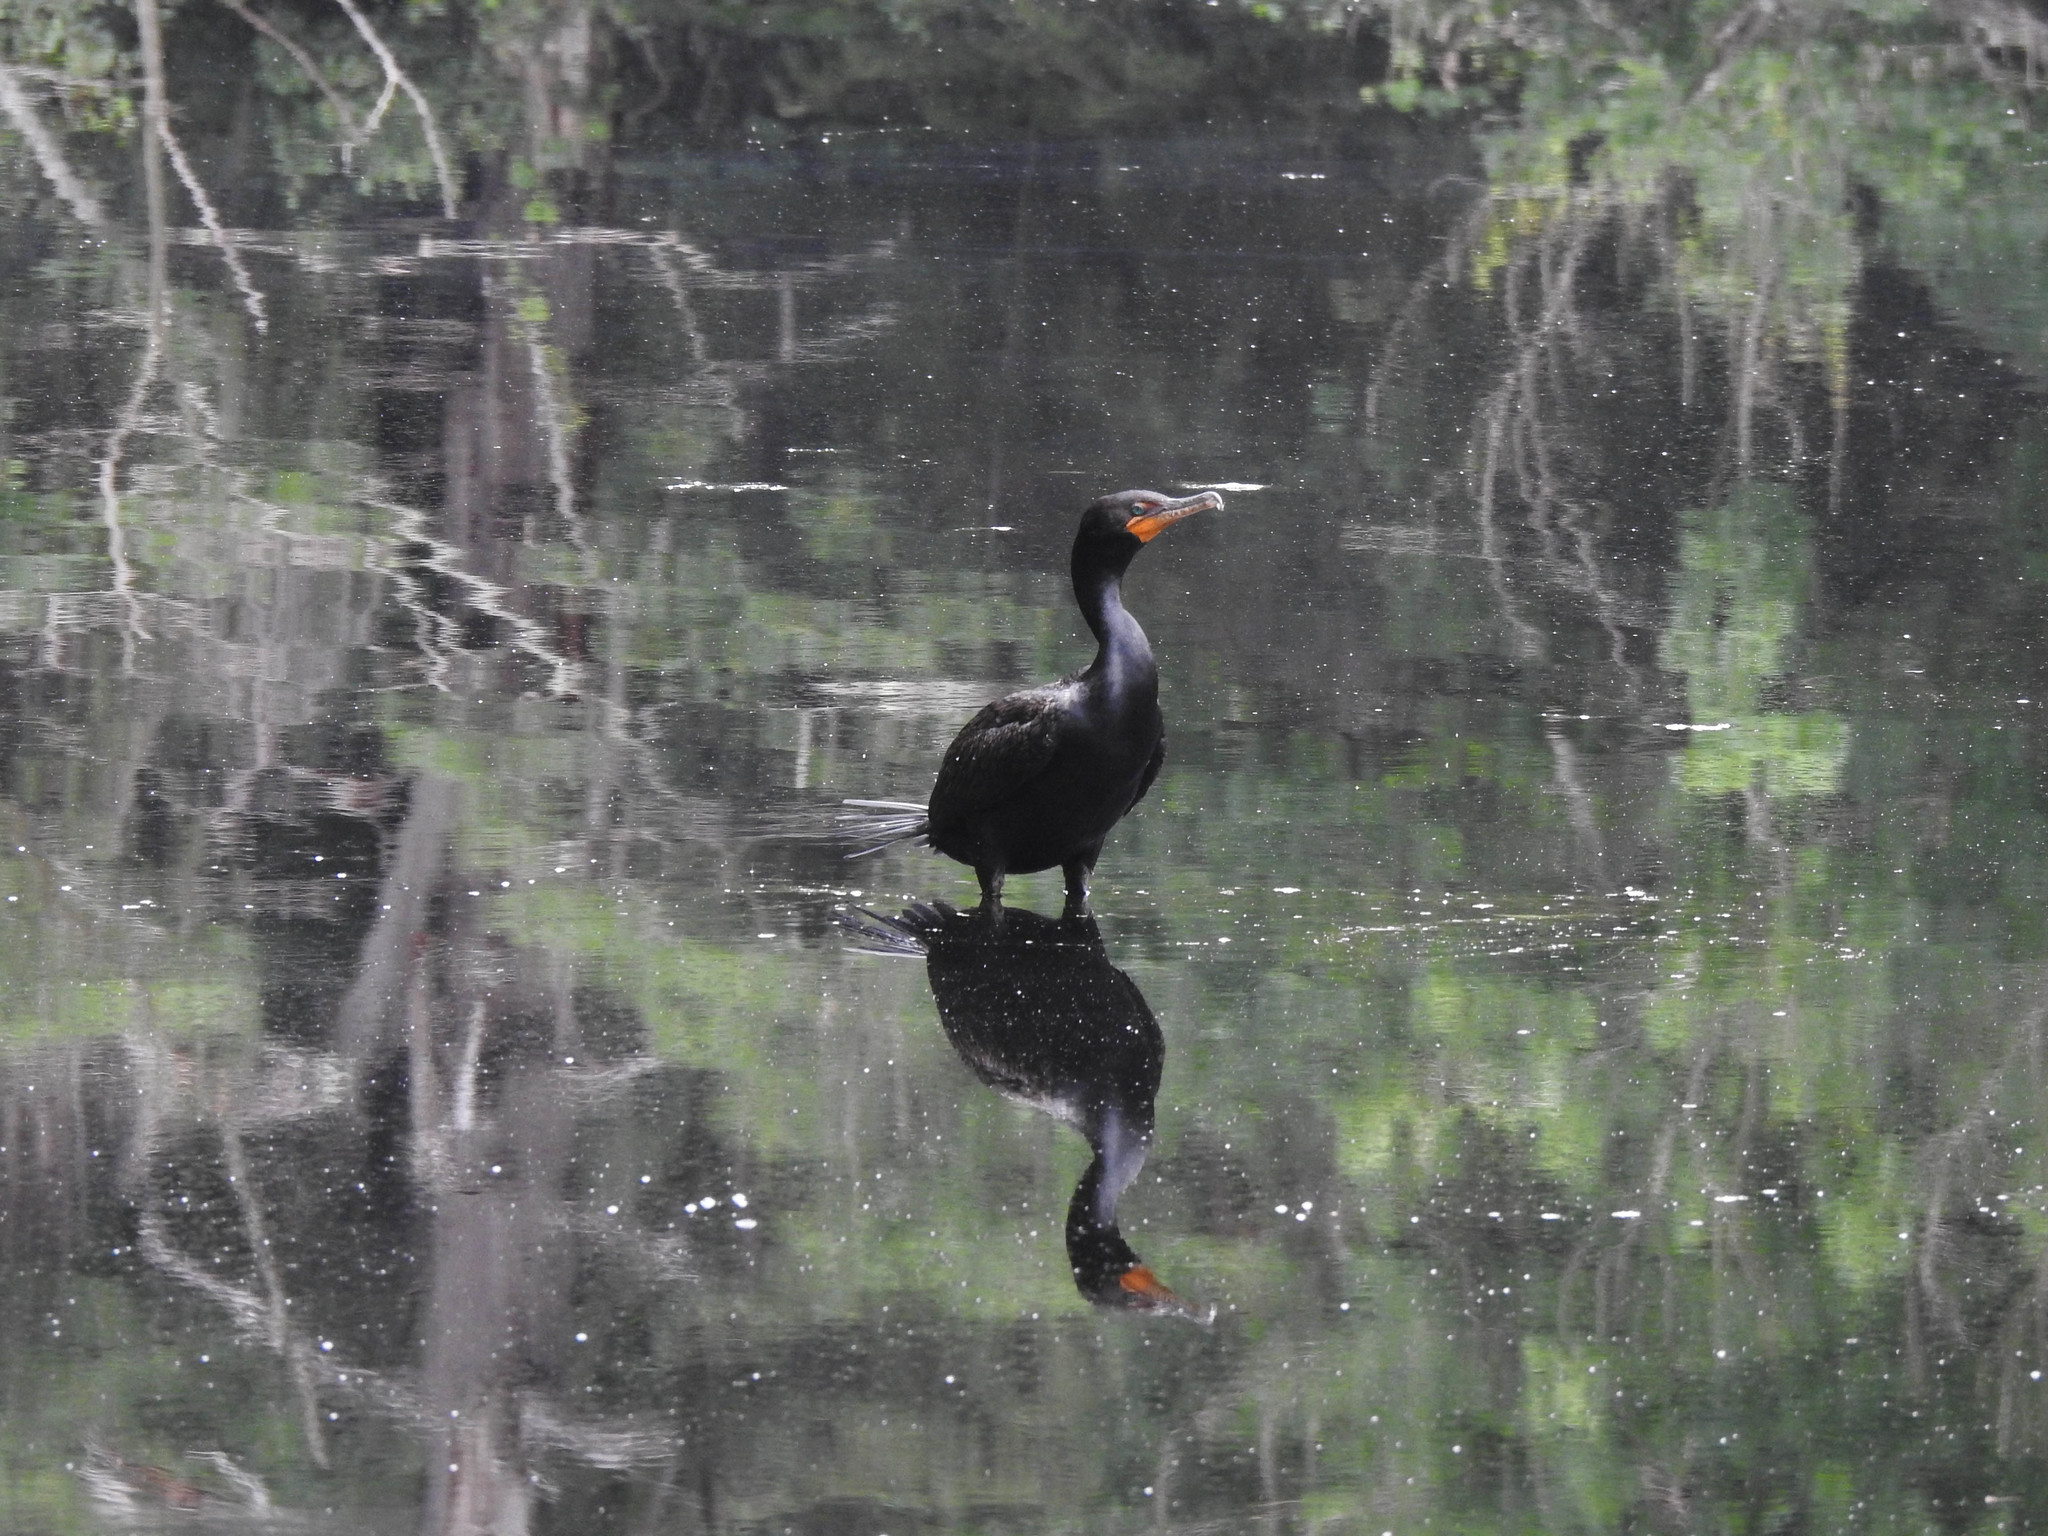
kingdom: Animalia
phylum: Chordata
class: Aves
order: Suliformes
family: Phalacrocoracidae
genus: Phalacrocorax
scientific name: Phalacrocorax auritus
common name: Double-crested cormorant
